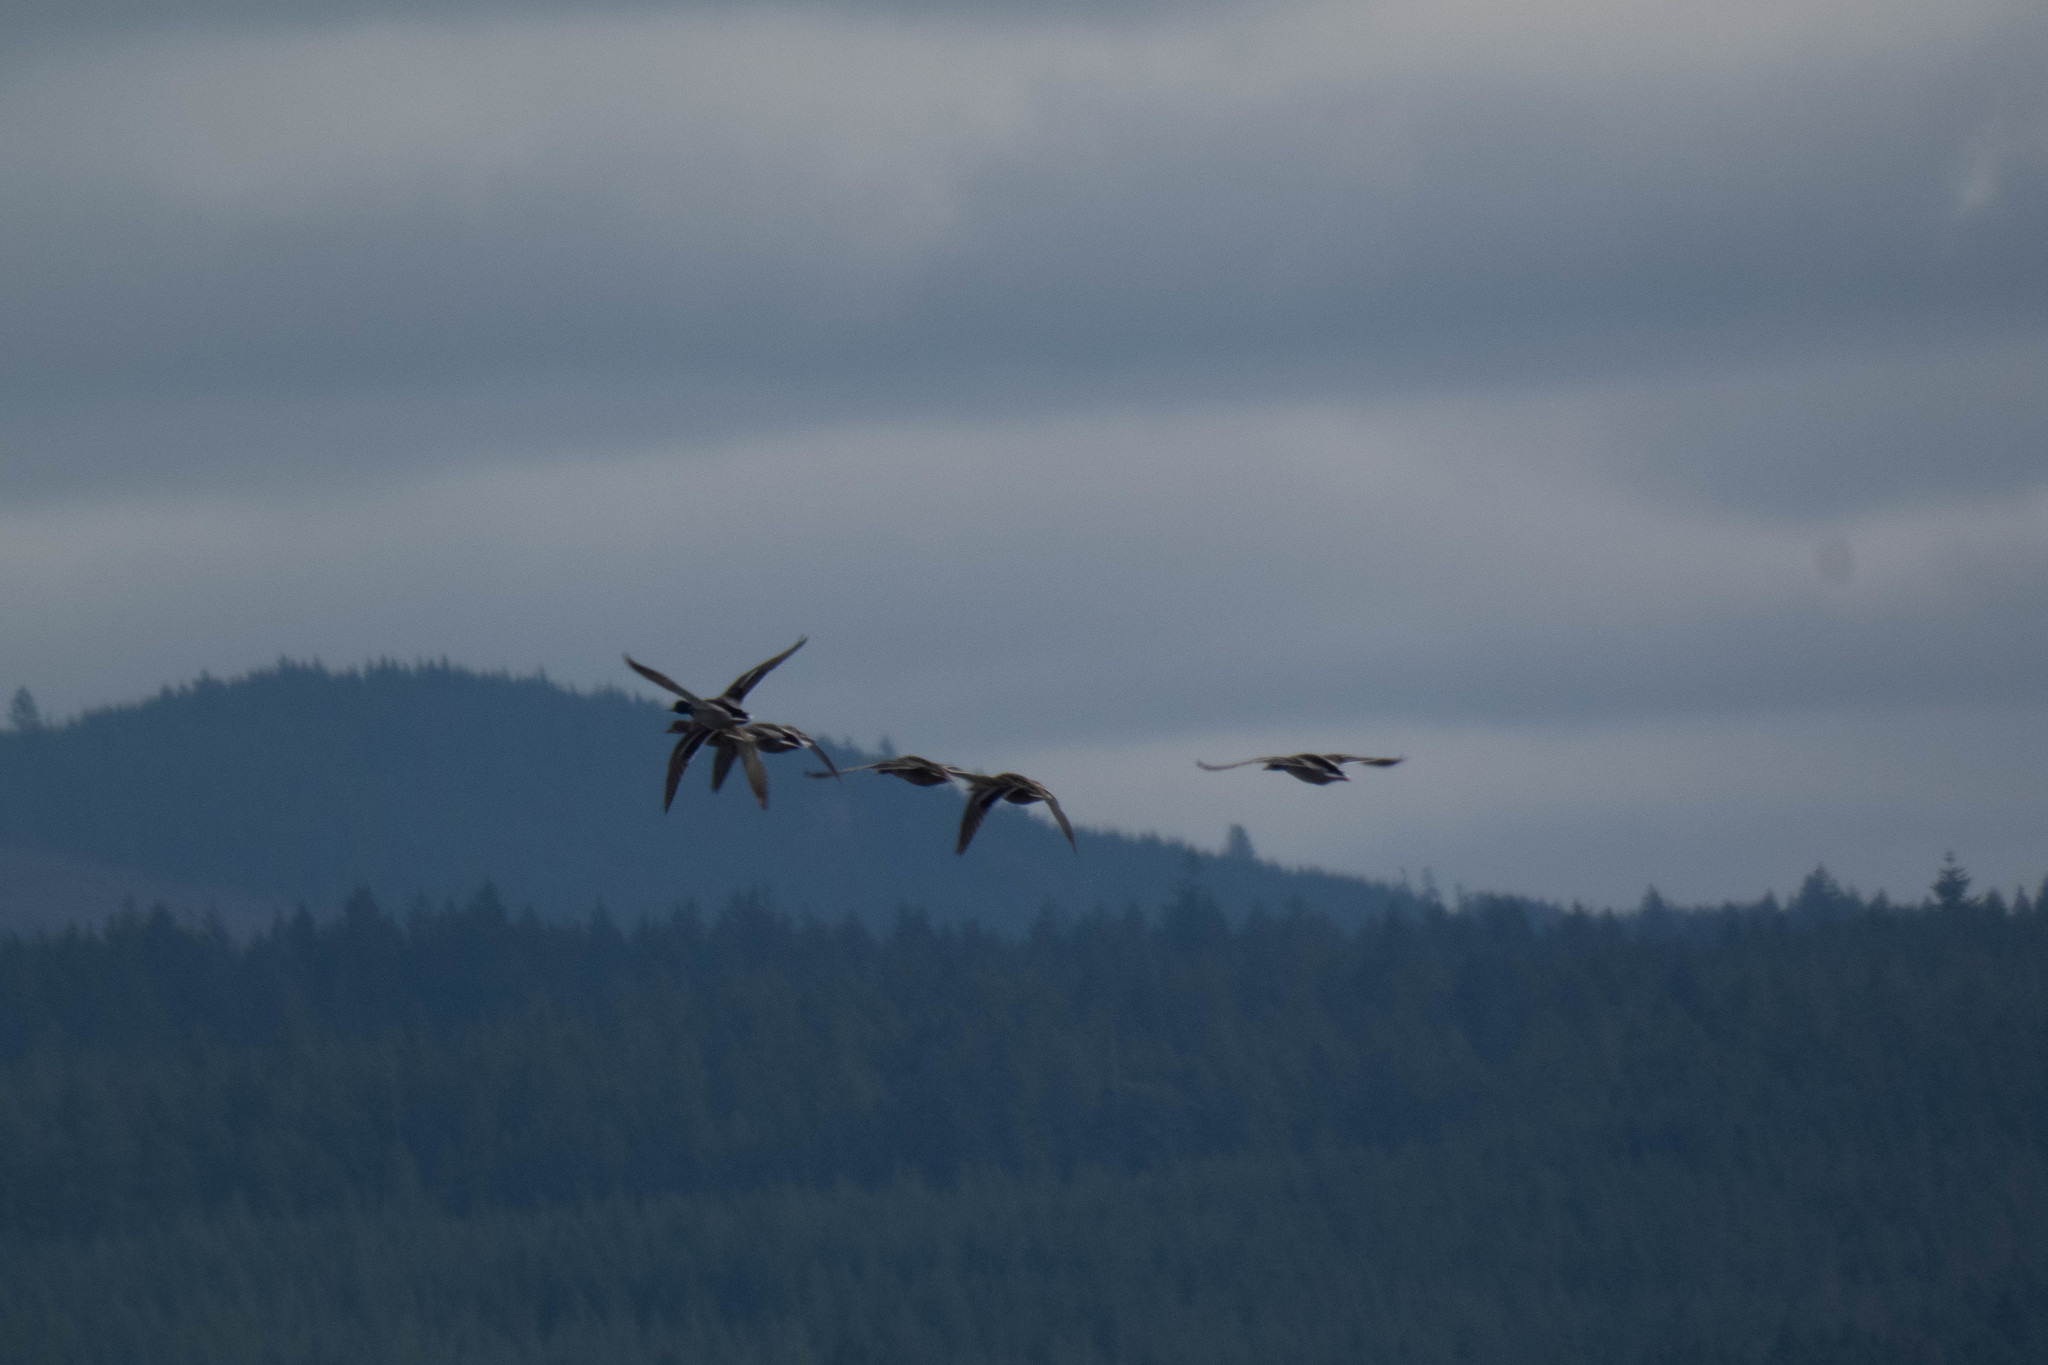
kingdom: Animalia
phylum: Chordata
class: Aves
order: Anseriformes
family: Anatidae
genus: Anas
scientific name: Anas platyrhynchos
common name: Mallard
